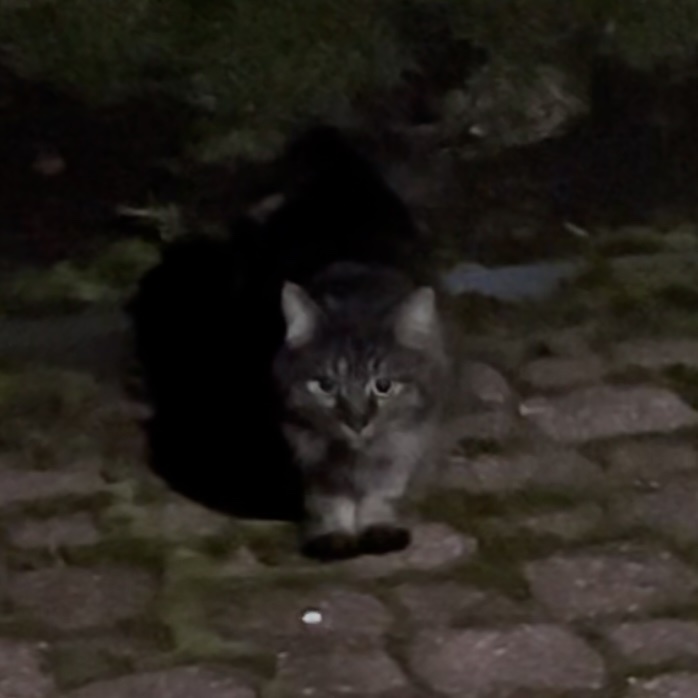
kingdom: Animalia
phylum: Chordata
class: Mammalia
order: Carnivora
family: Felidae
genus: Felis
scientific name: Felis catus
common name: Domestic cat
